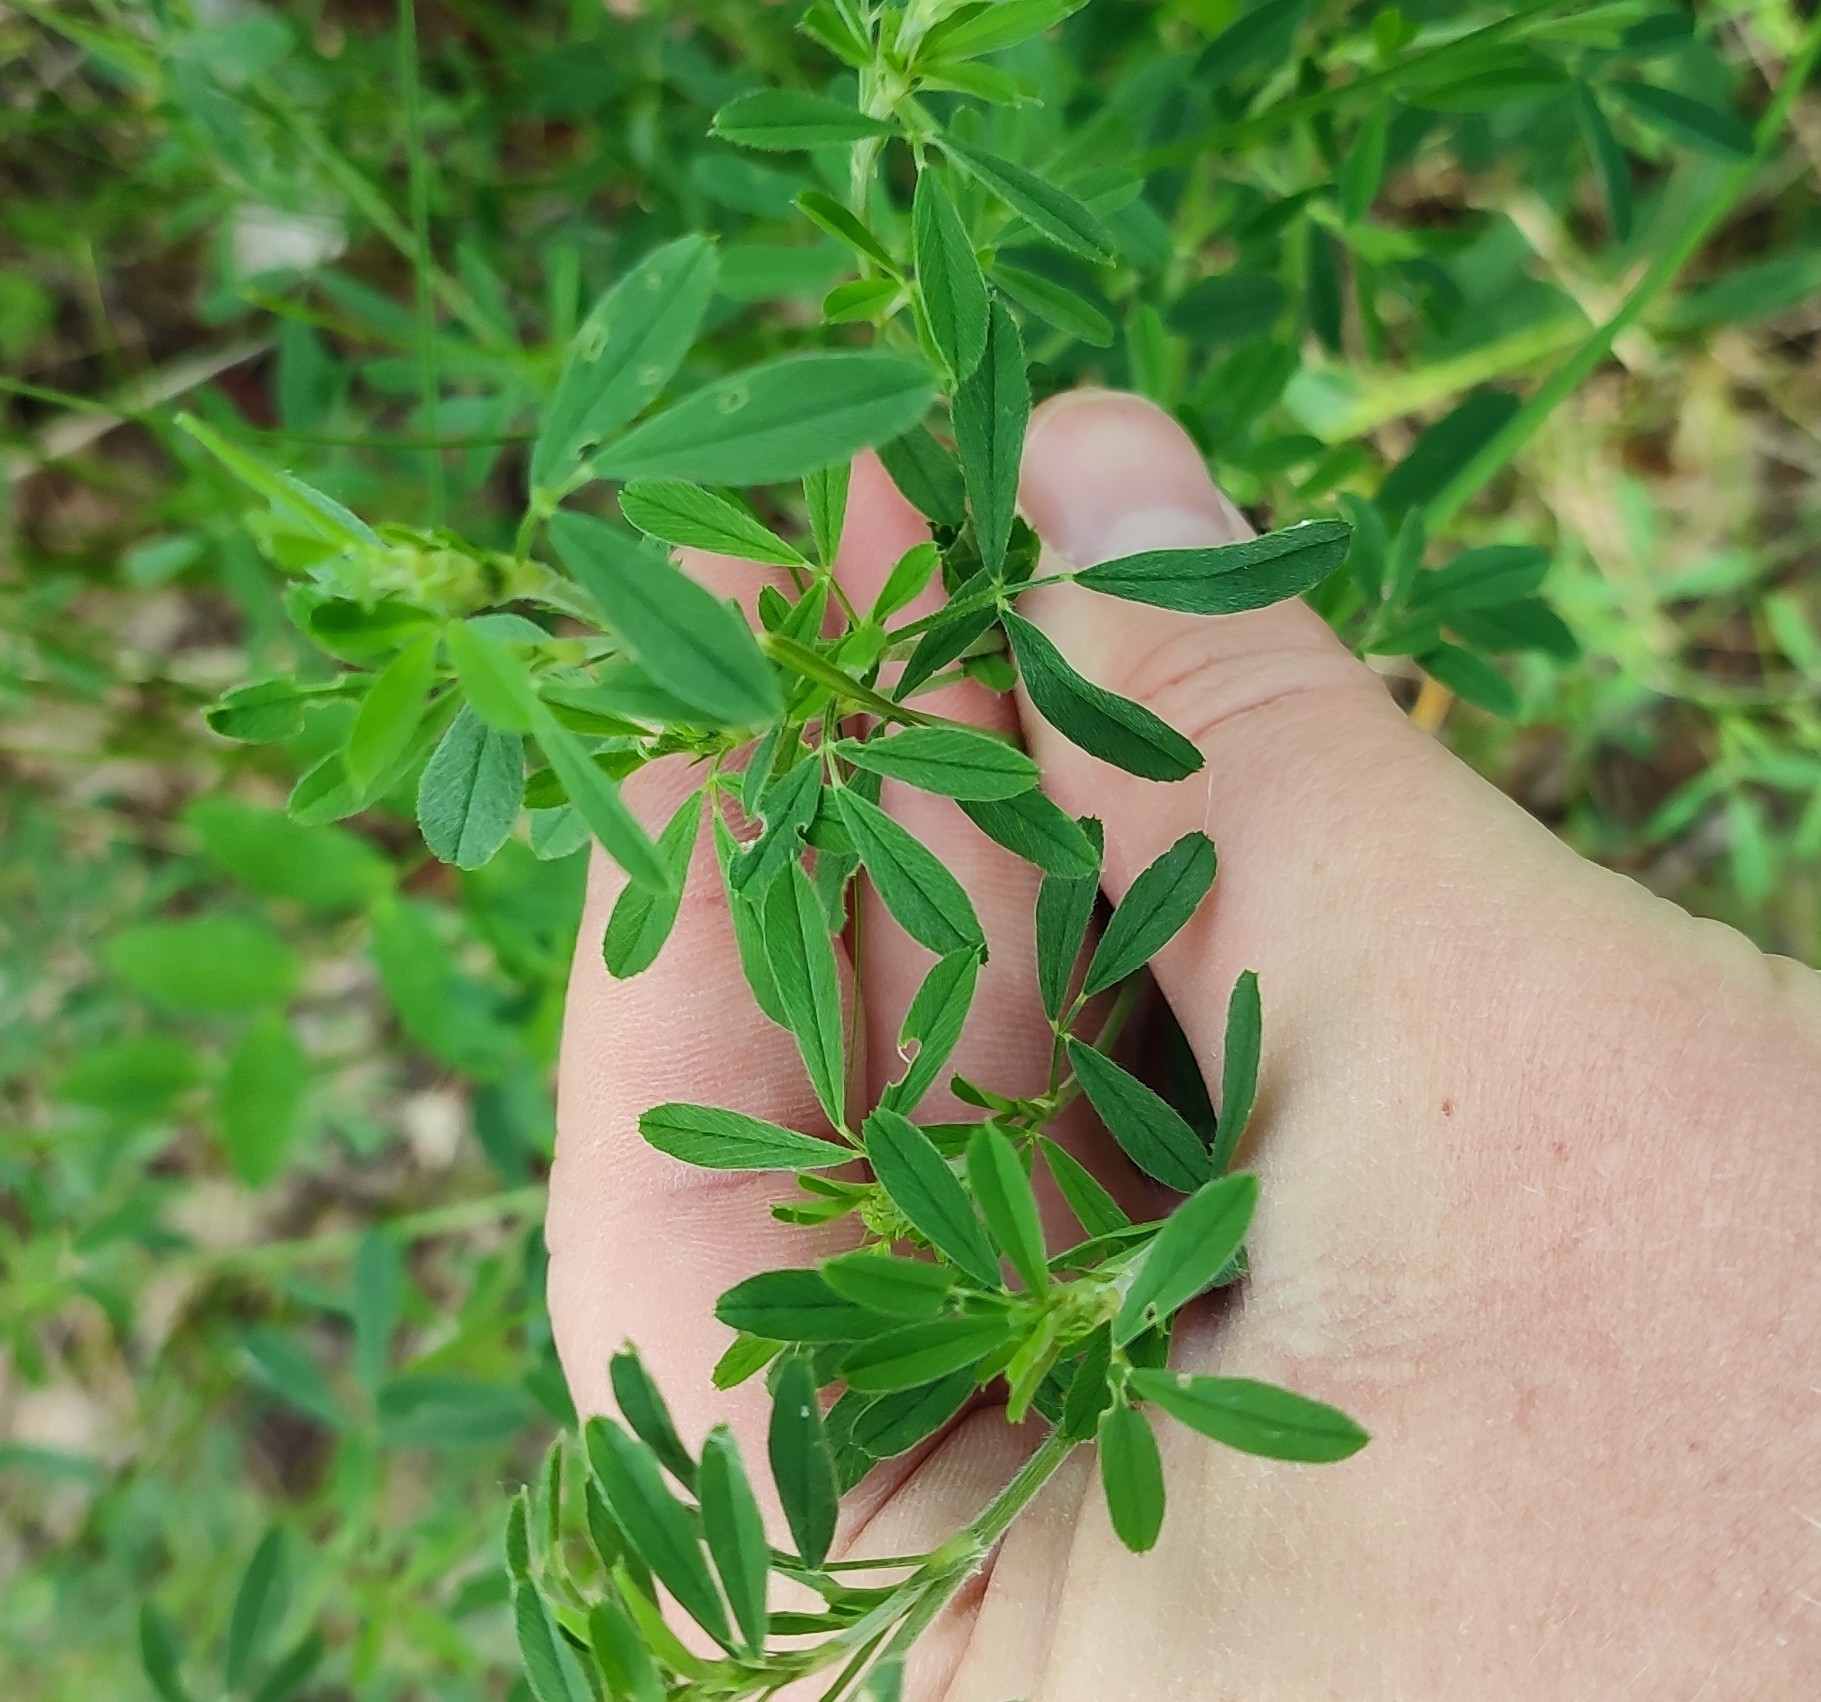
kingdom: Plantae
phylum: Tracheophyta
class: Magnoliopsida
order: Fabales
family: Fabaceae
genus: Medicago
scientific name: Medicago falcata
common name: Sickle medick
